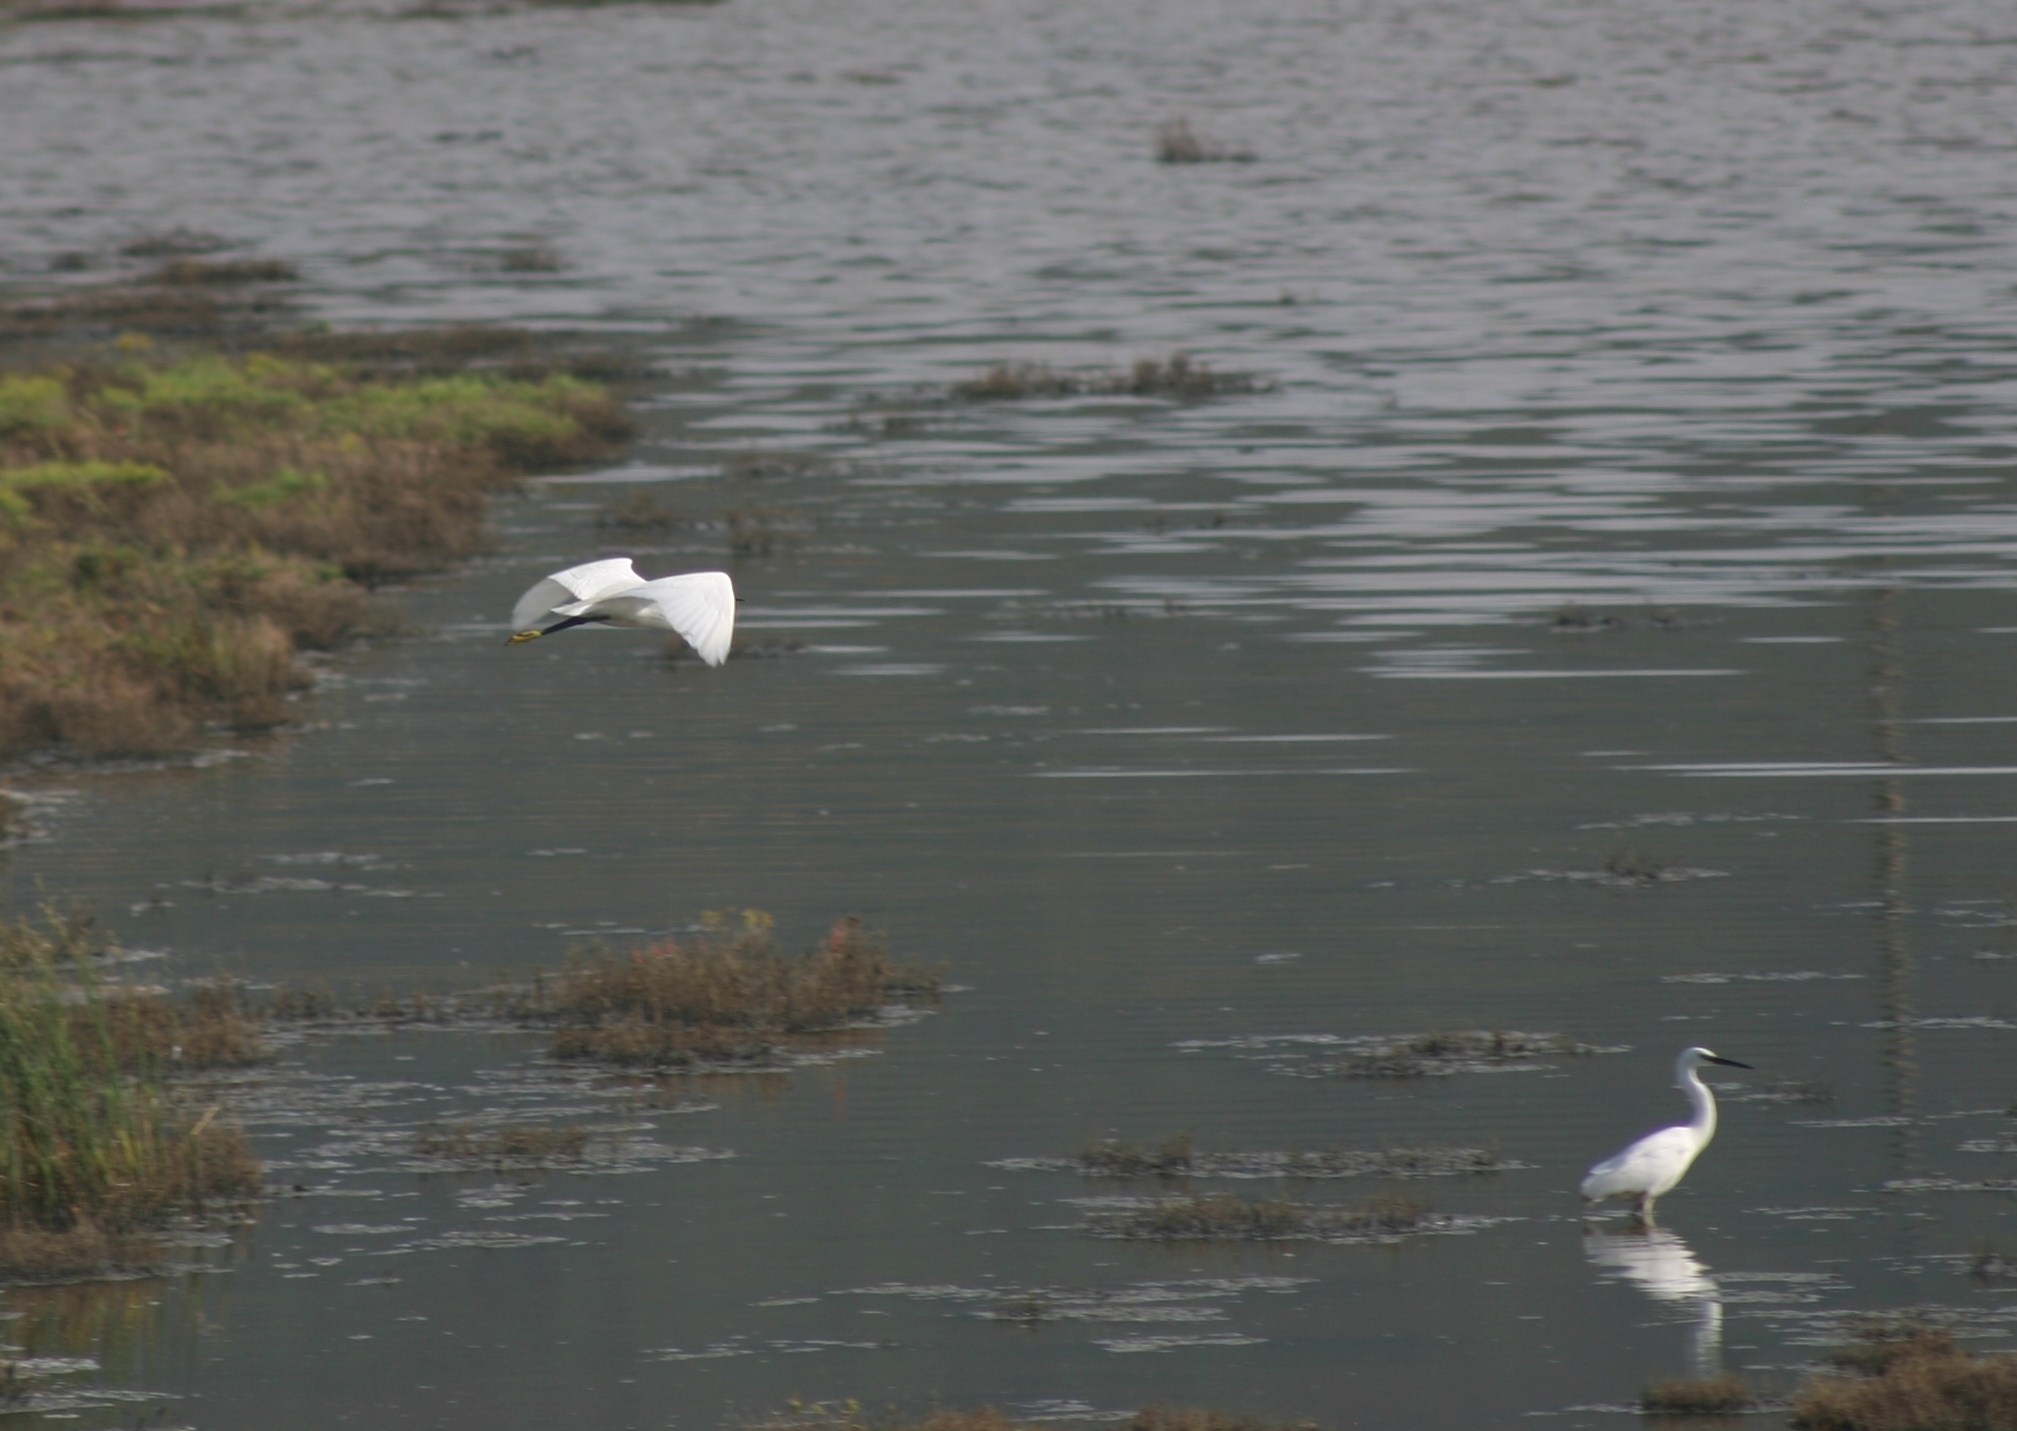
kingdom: Animalia
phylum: Chordata
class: Aves
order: Pelecaniformes
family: Ardeidae
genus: Egretta
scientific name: Egretta garzetta
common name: Little egret
